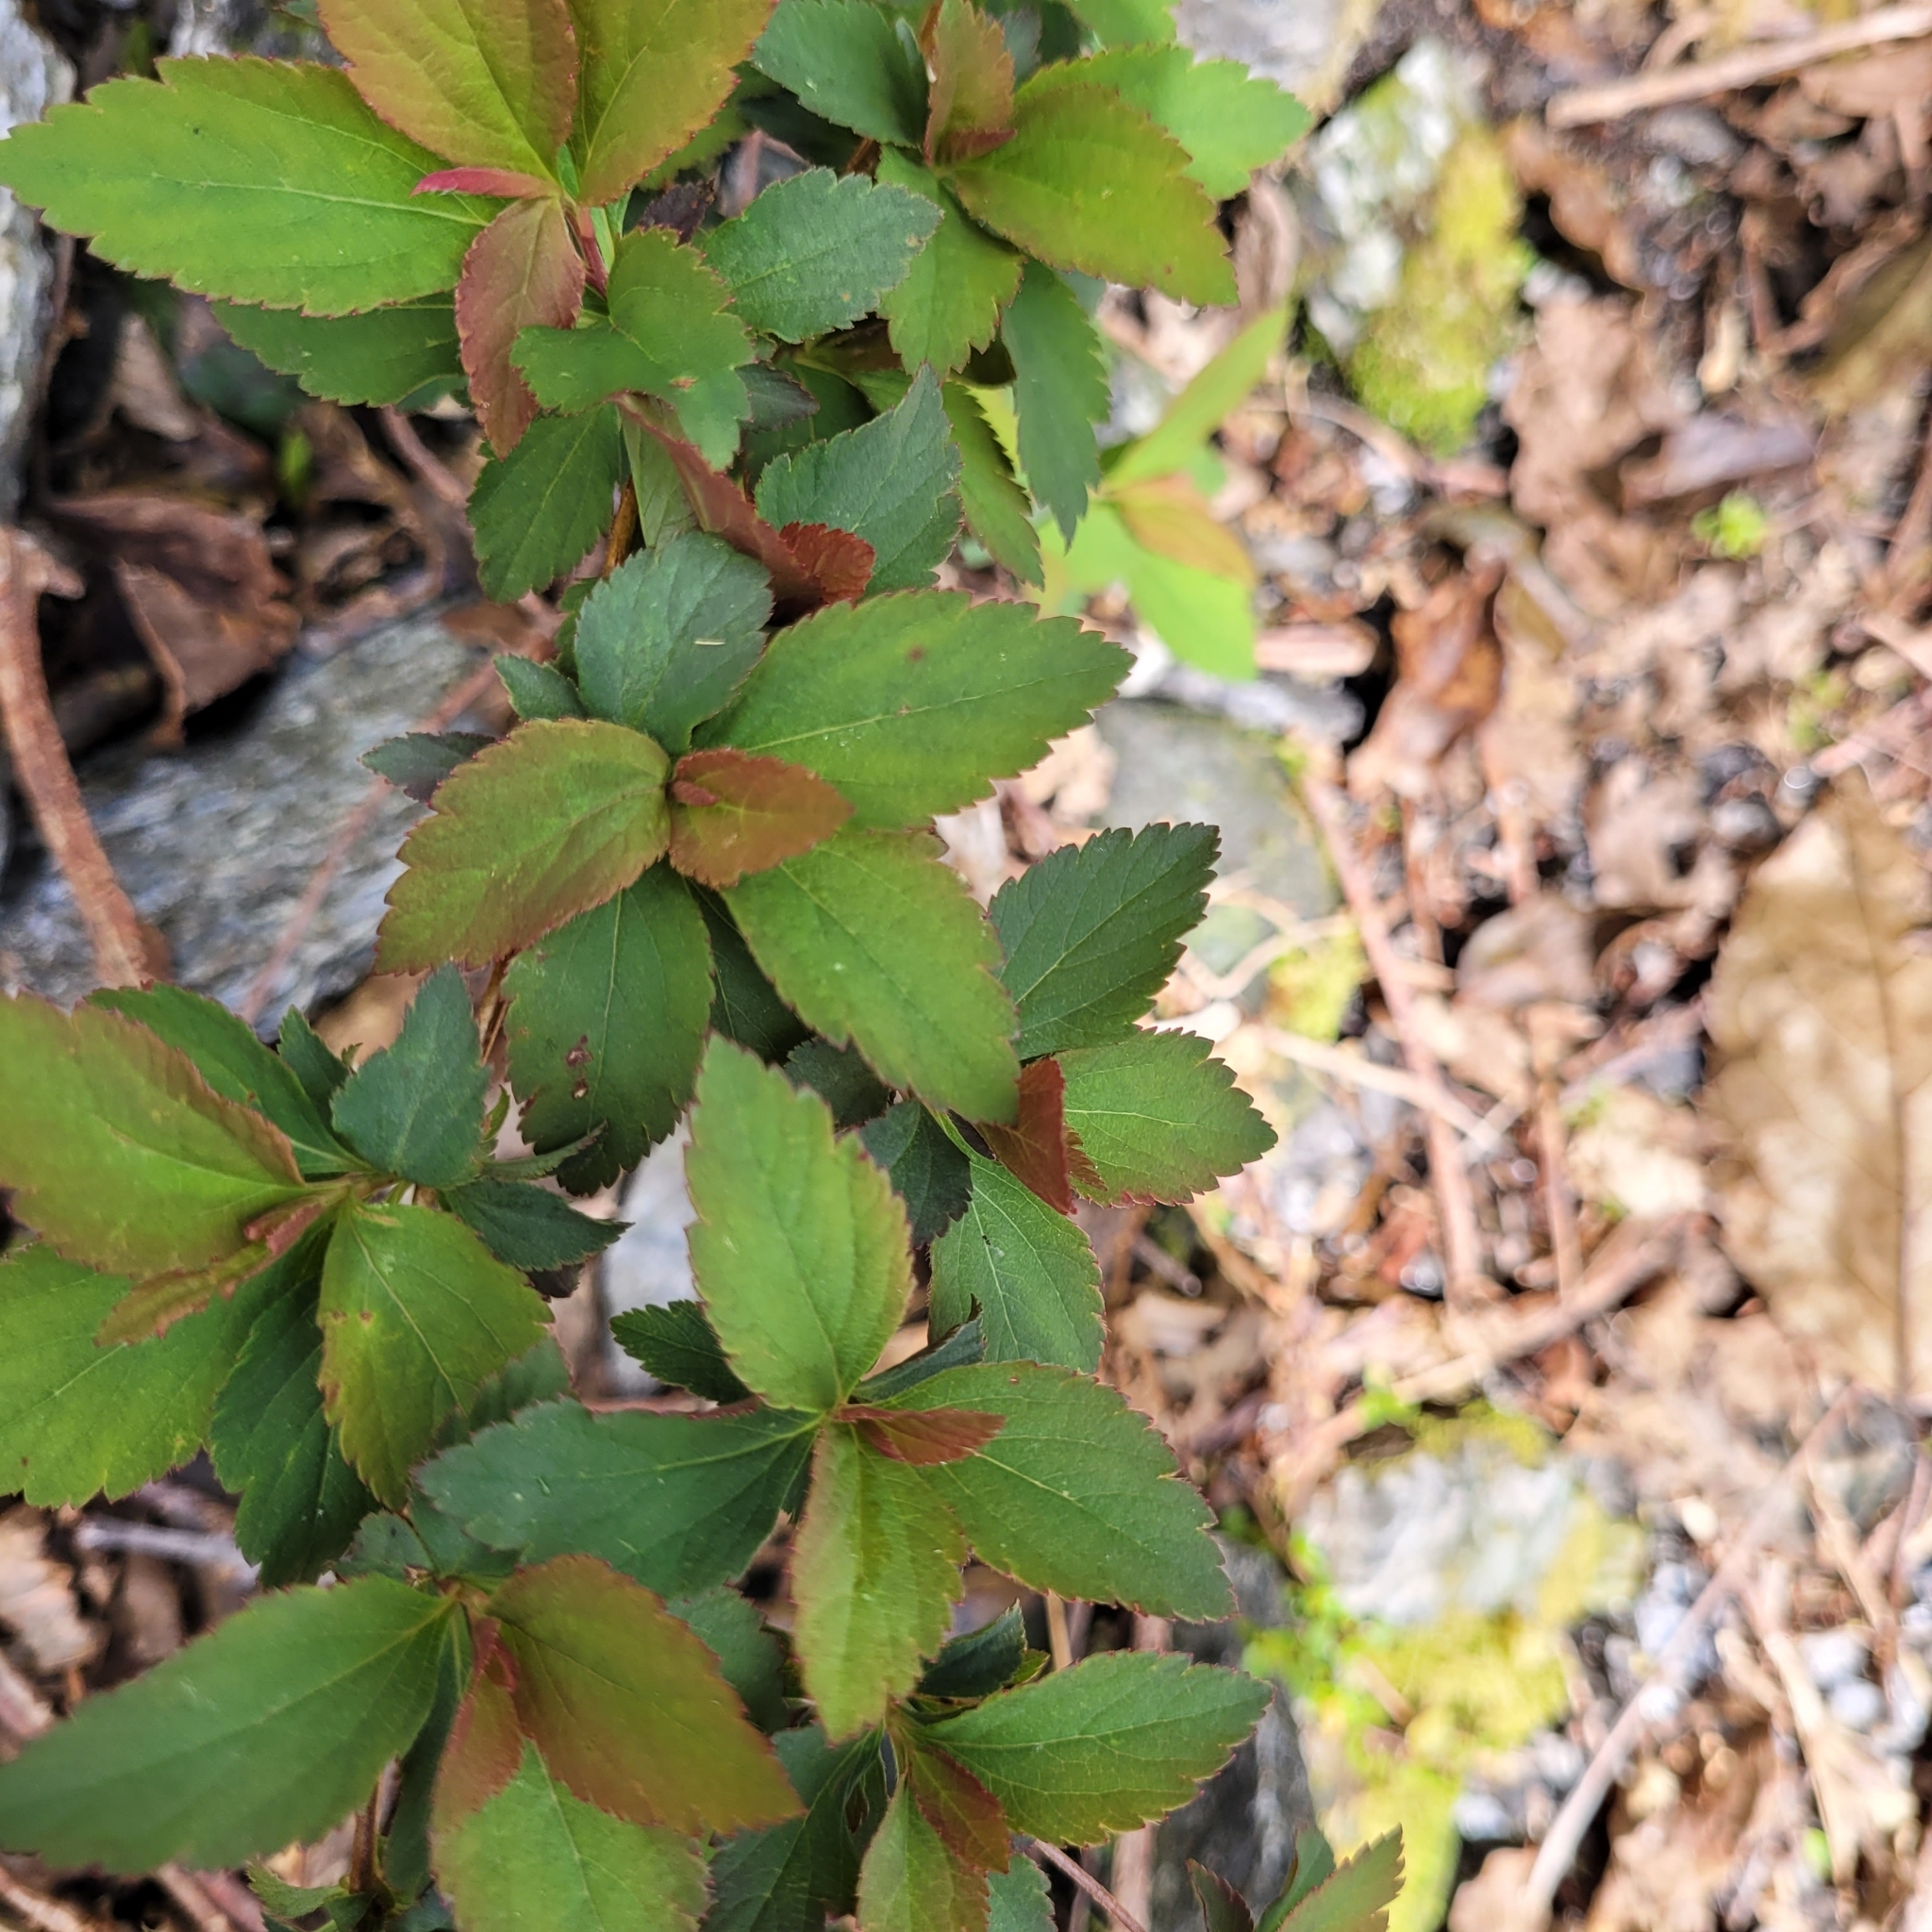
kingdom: Plantae
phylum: Tracheophyta
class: Magnoliopsida
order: Rosales
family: Rosaceae
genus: Spiraea
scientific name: Spiraea japonica
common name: Japanese spiraea
